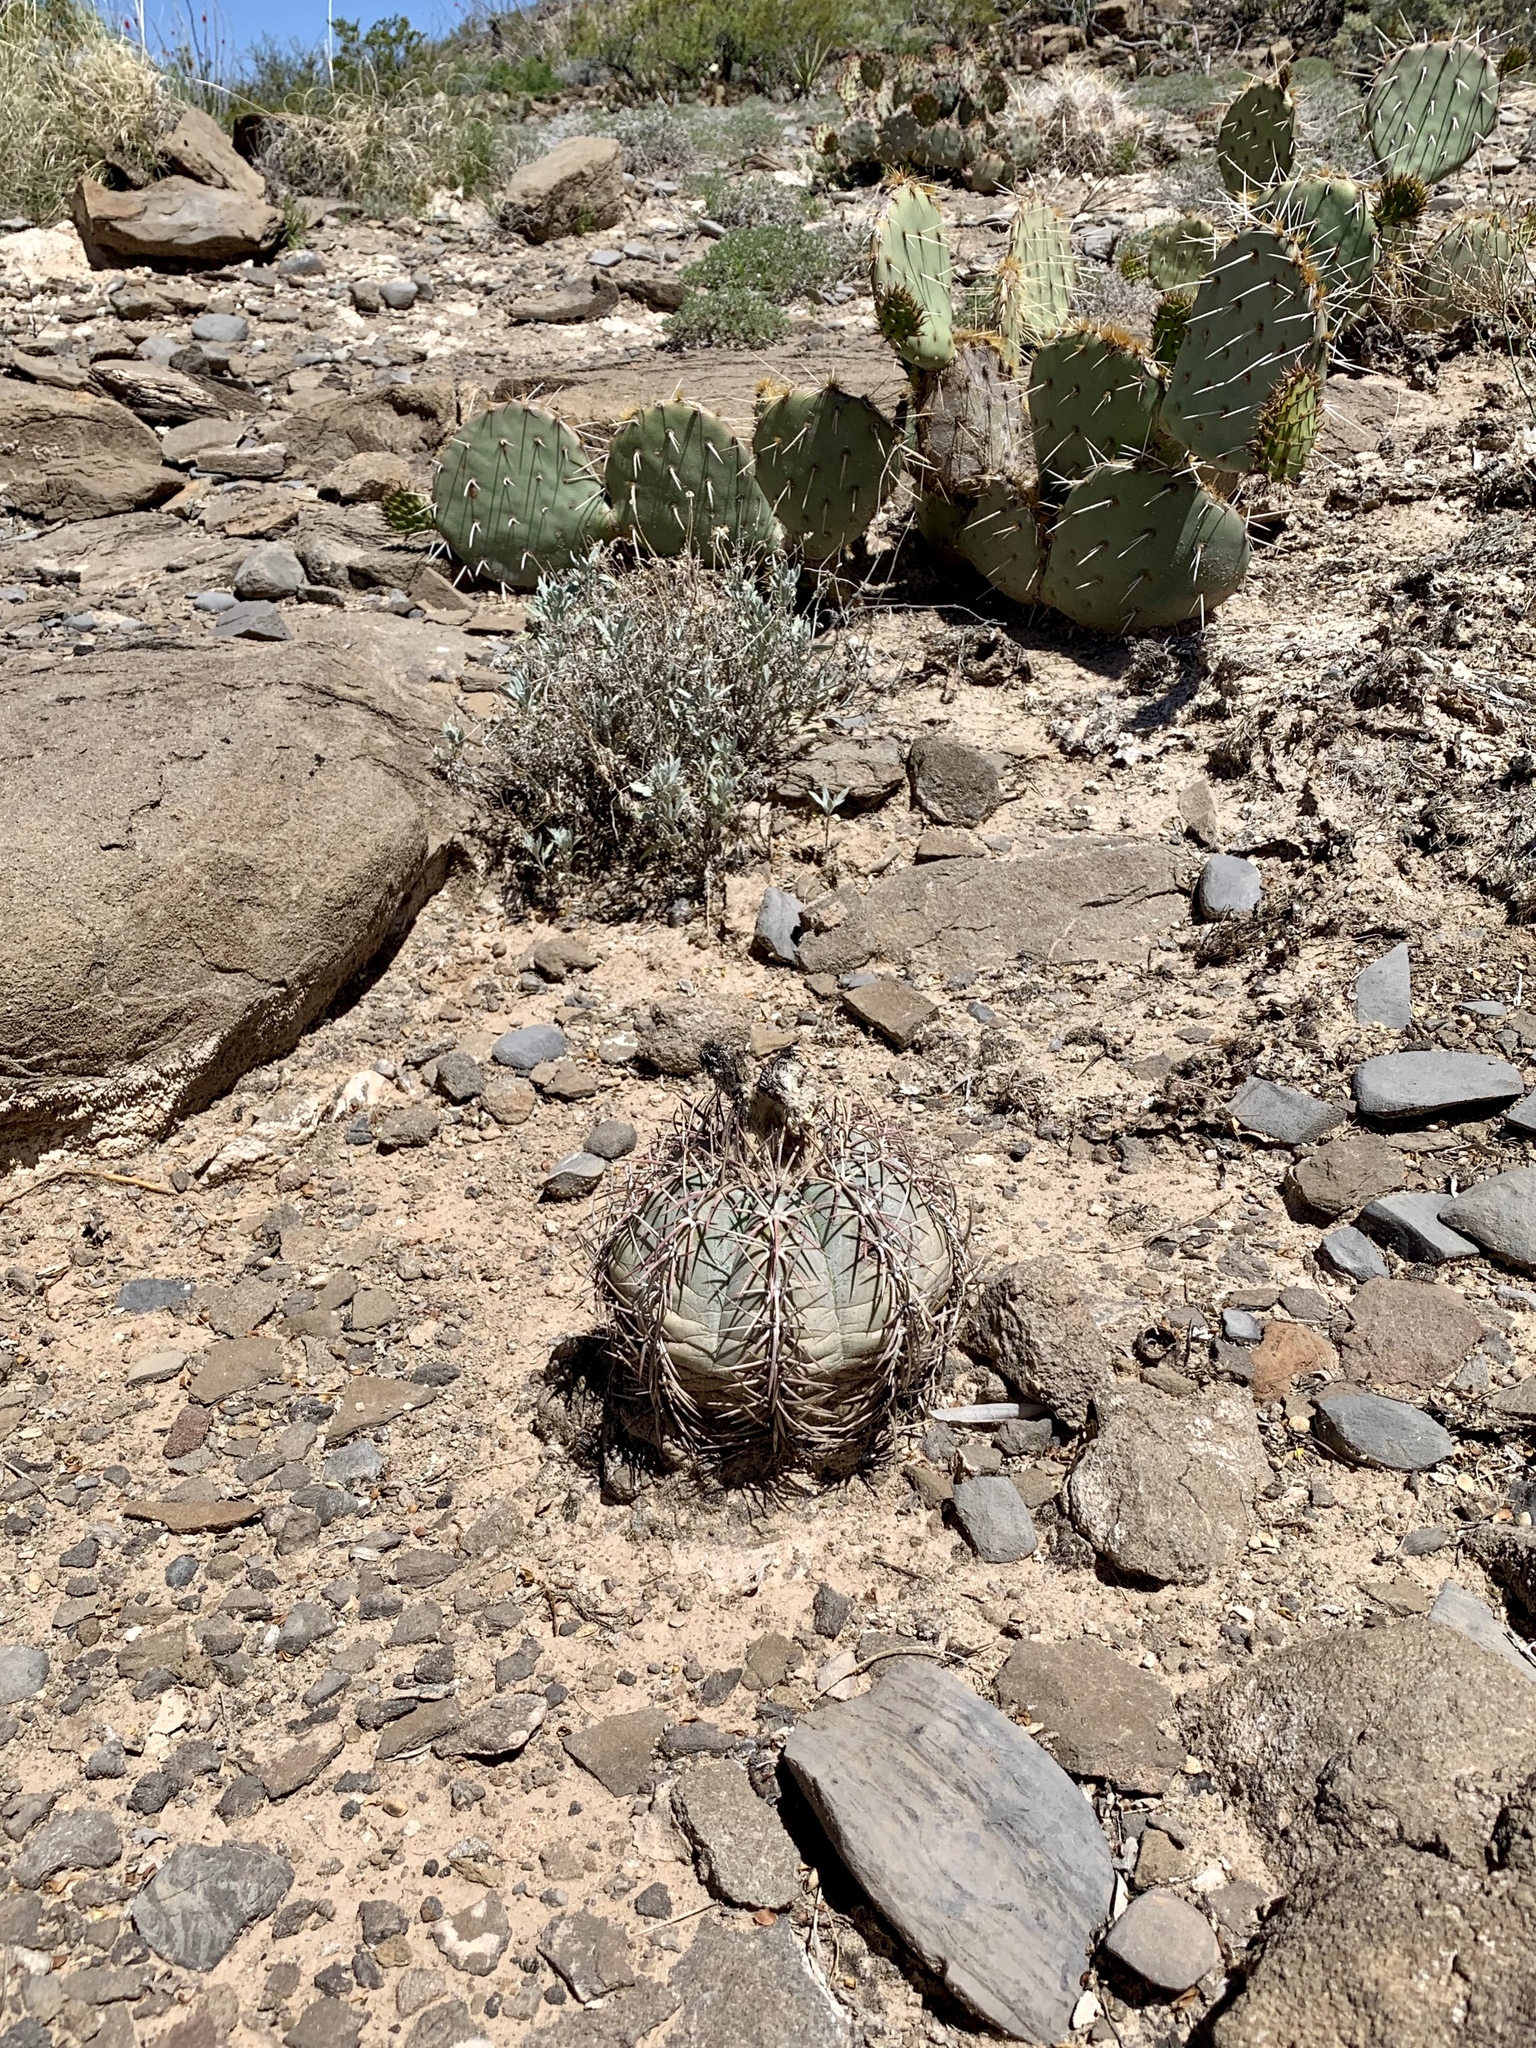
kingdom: Plantae
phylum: Tracheophyta
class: Magnoliopsida
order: Caryophyllales
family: Cactaceae
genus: Echinocactus
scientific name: Echinocactus horizonthalonius
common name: Devilshead
